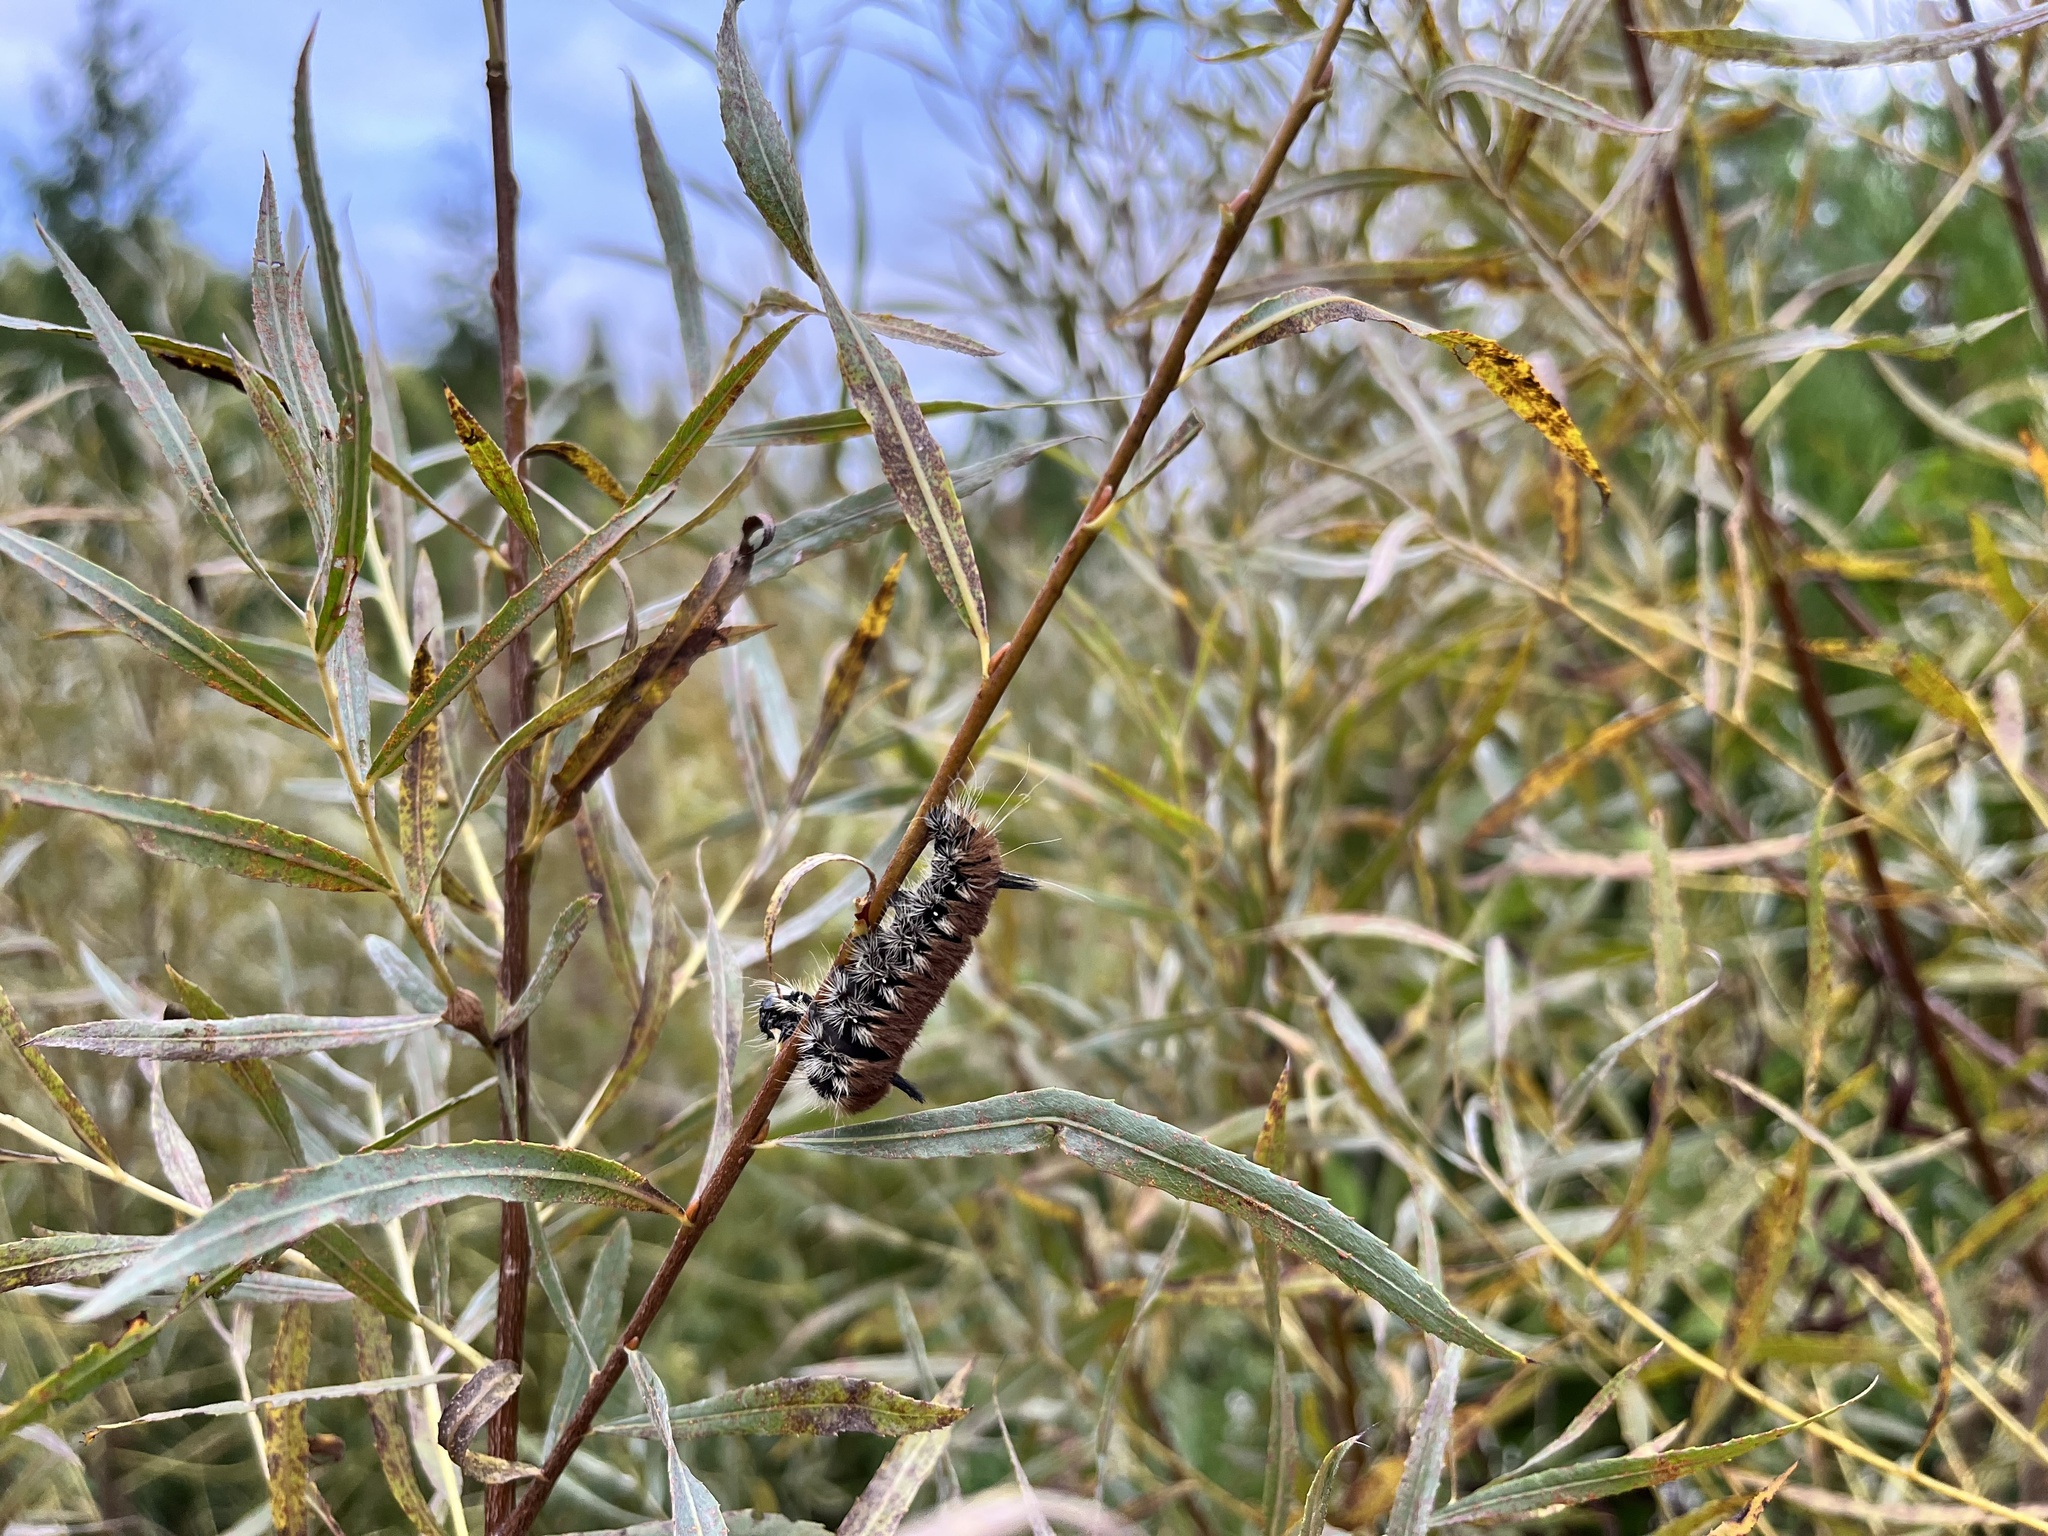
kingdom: Animalia
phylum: Arthropoda
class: Insecta
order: Lepidoptera
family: Noctuidae
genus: Acronicta
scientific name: Acronicta insita
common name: Large gray dagger
